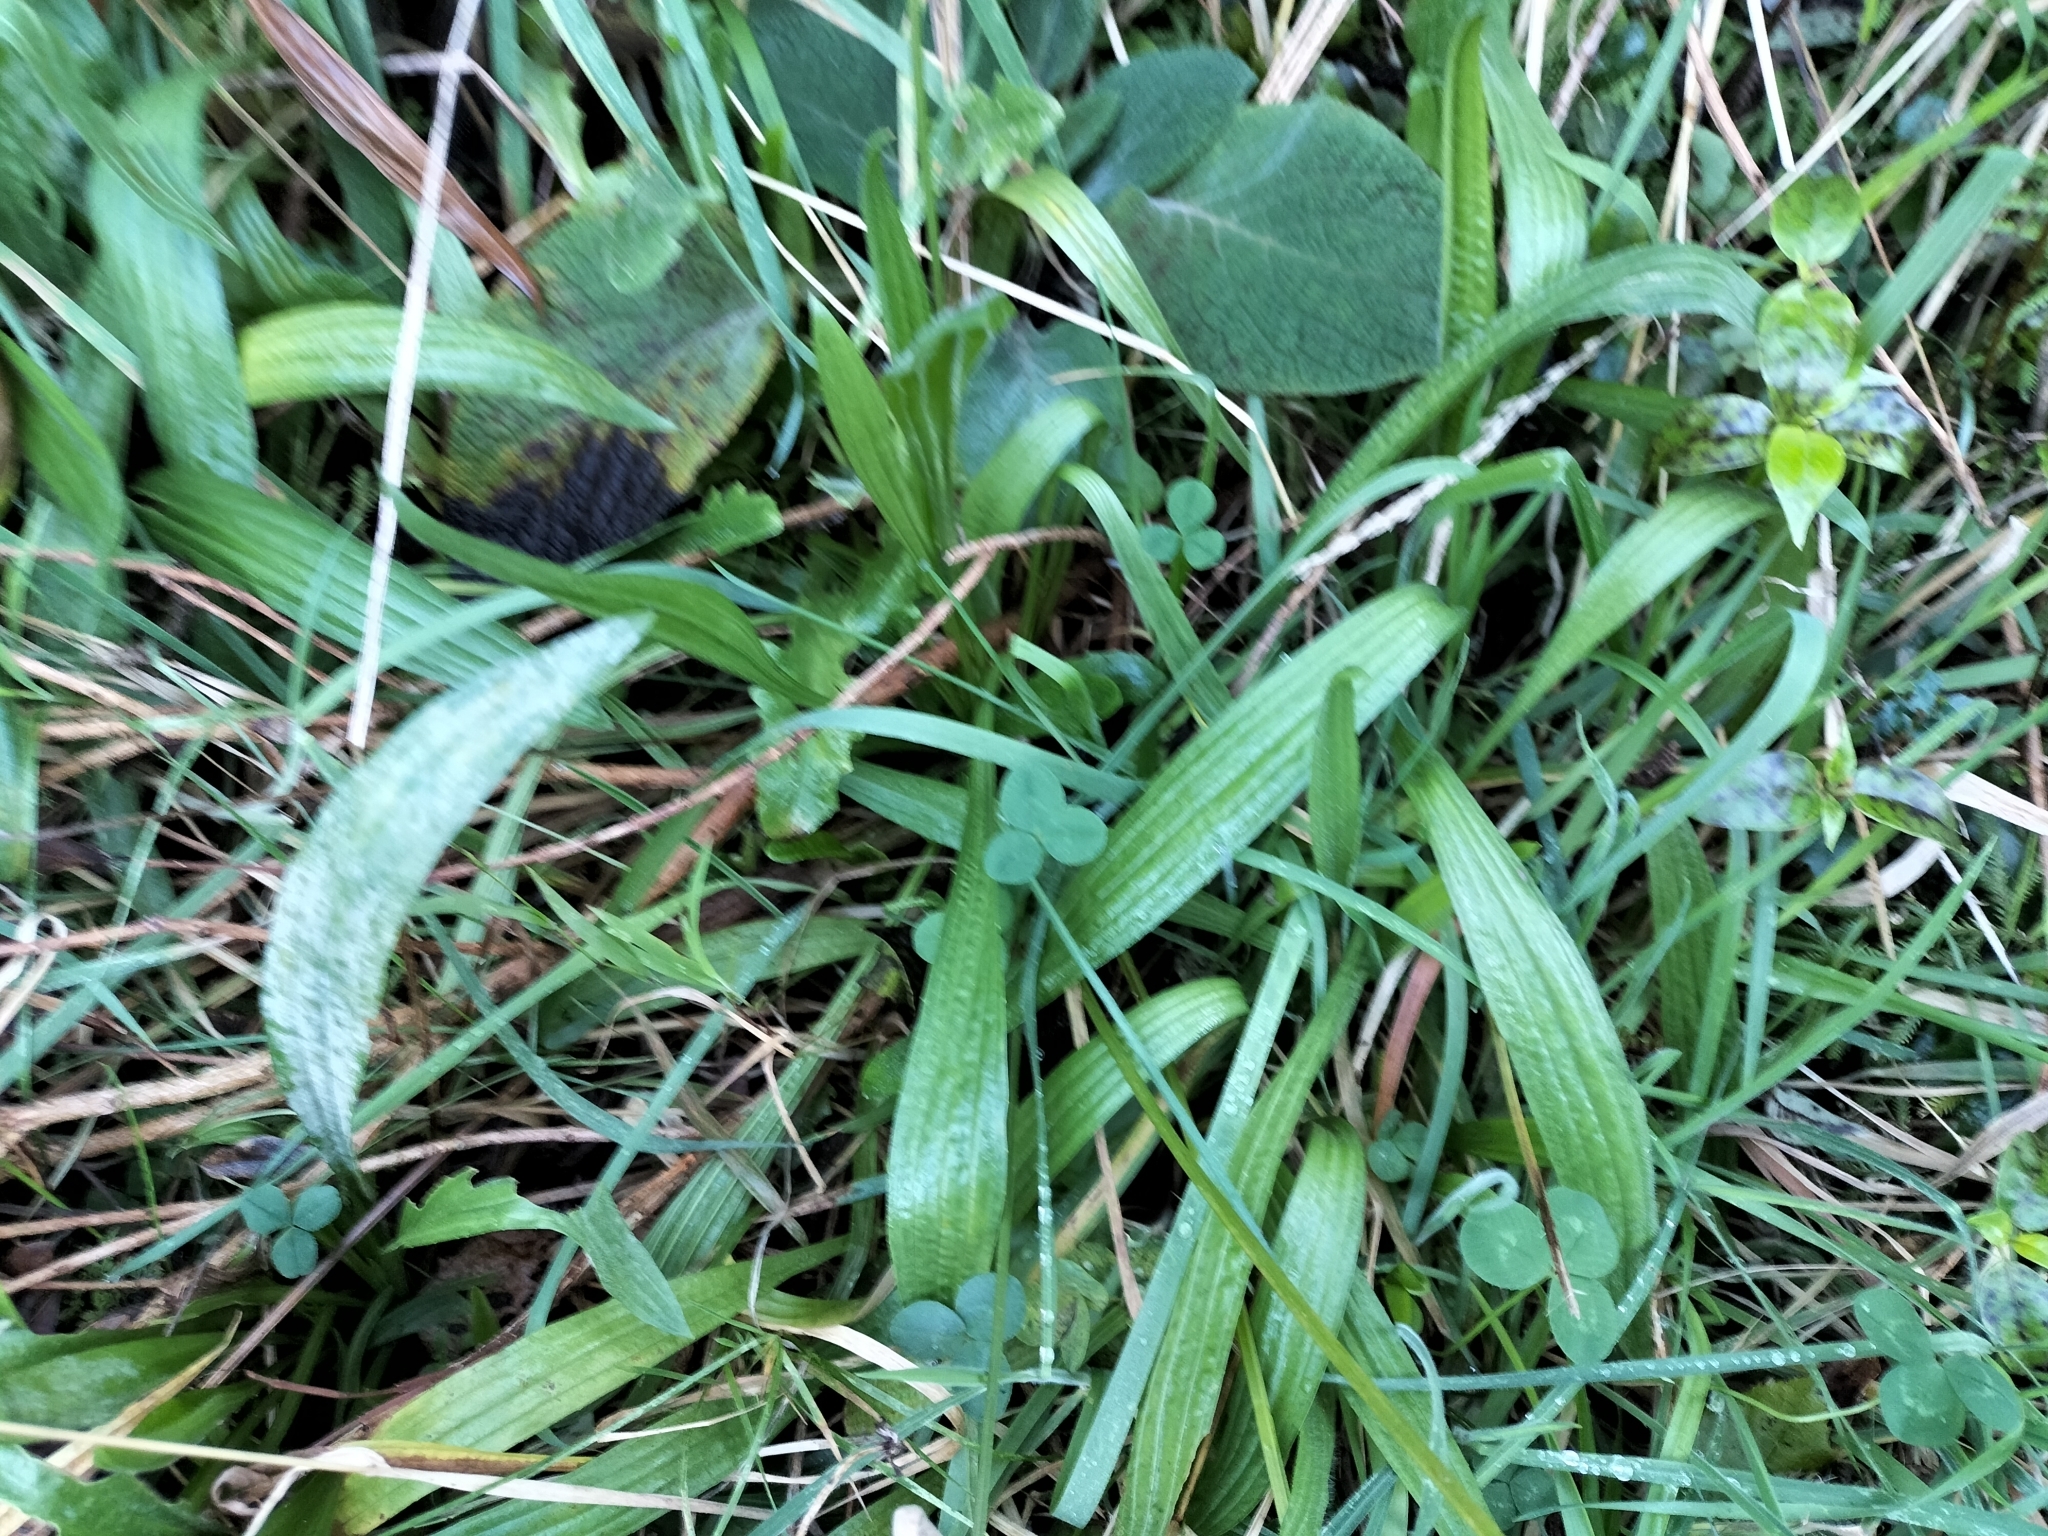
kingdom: Plantae
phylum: Tracheophyta
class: Magnoliopsida
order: Lamiales
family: Plantaginaceae
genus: Plantago
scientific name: Plantago lanceolata
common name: Ribwort plantain
